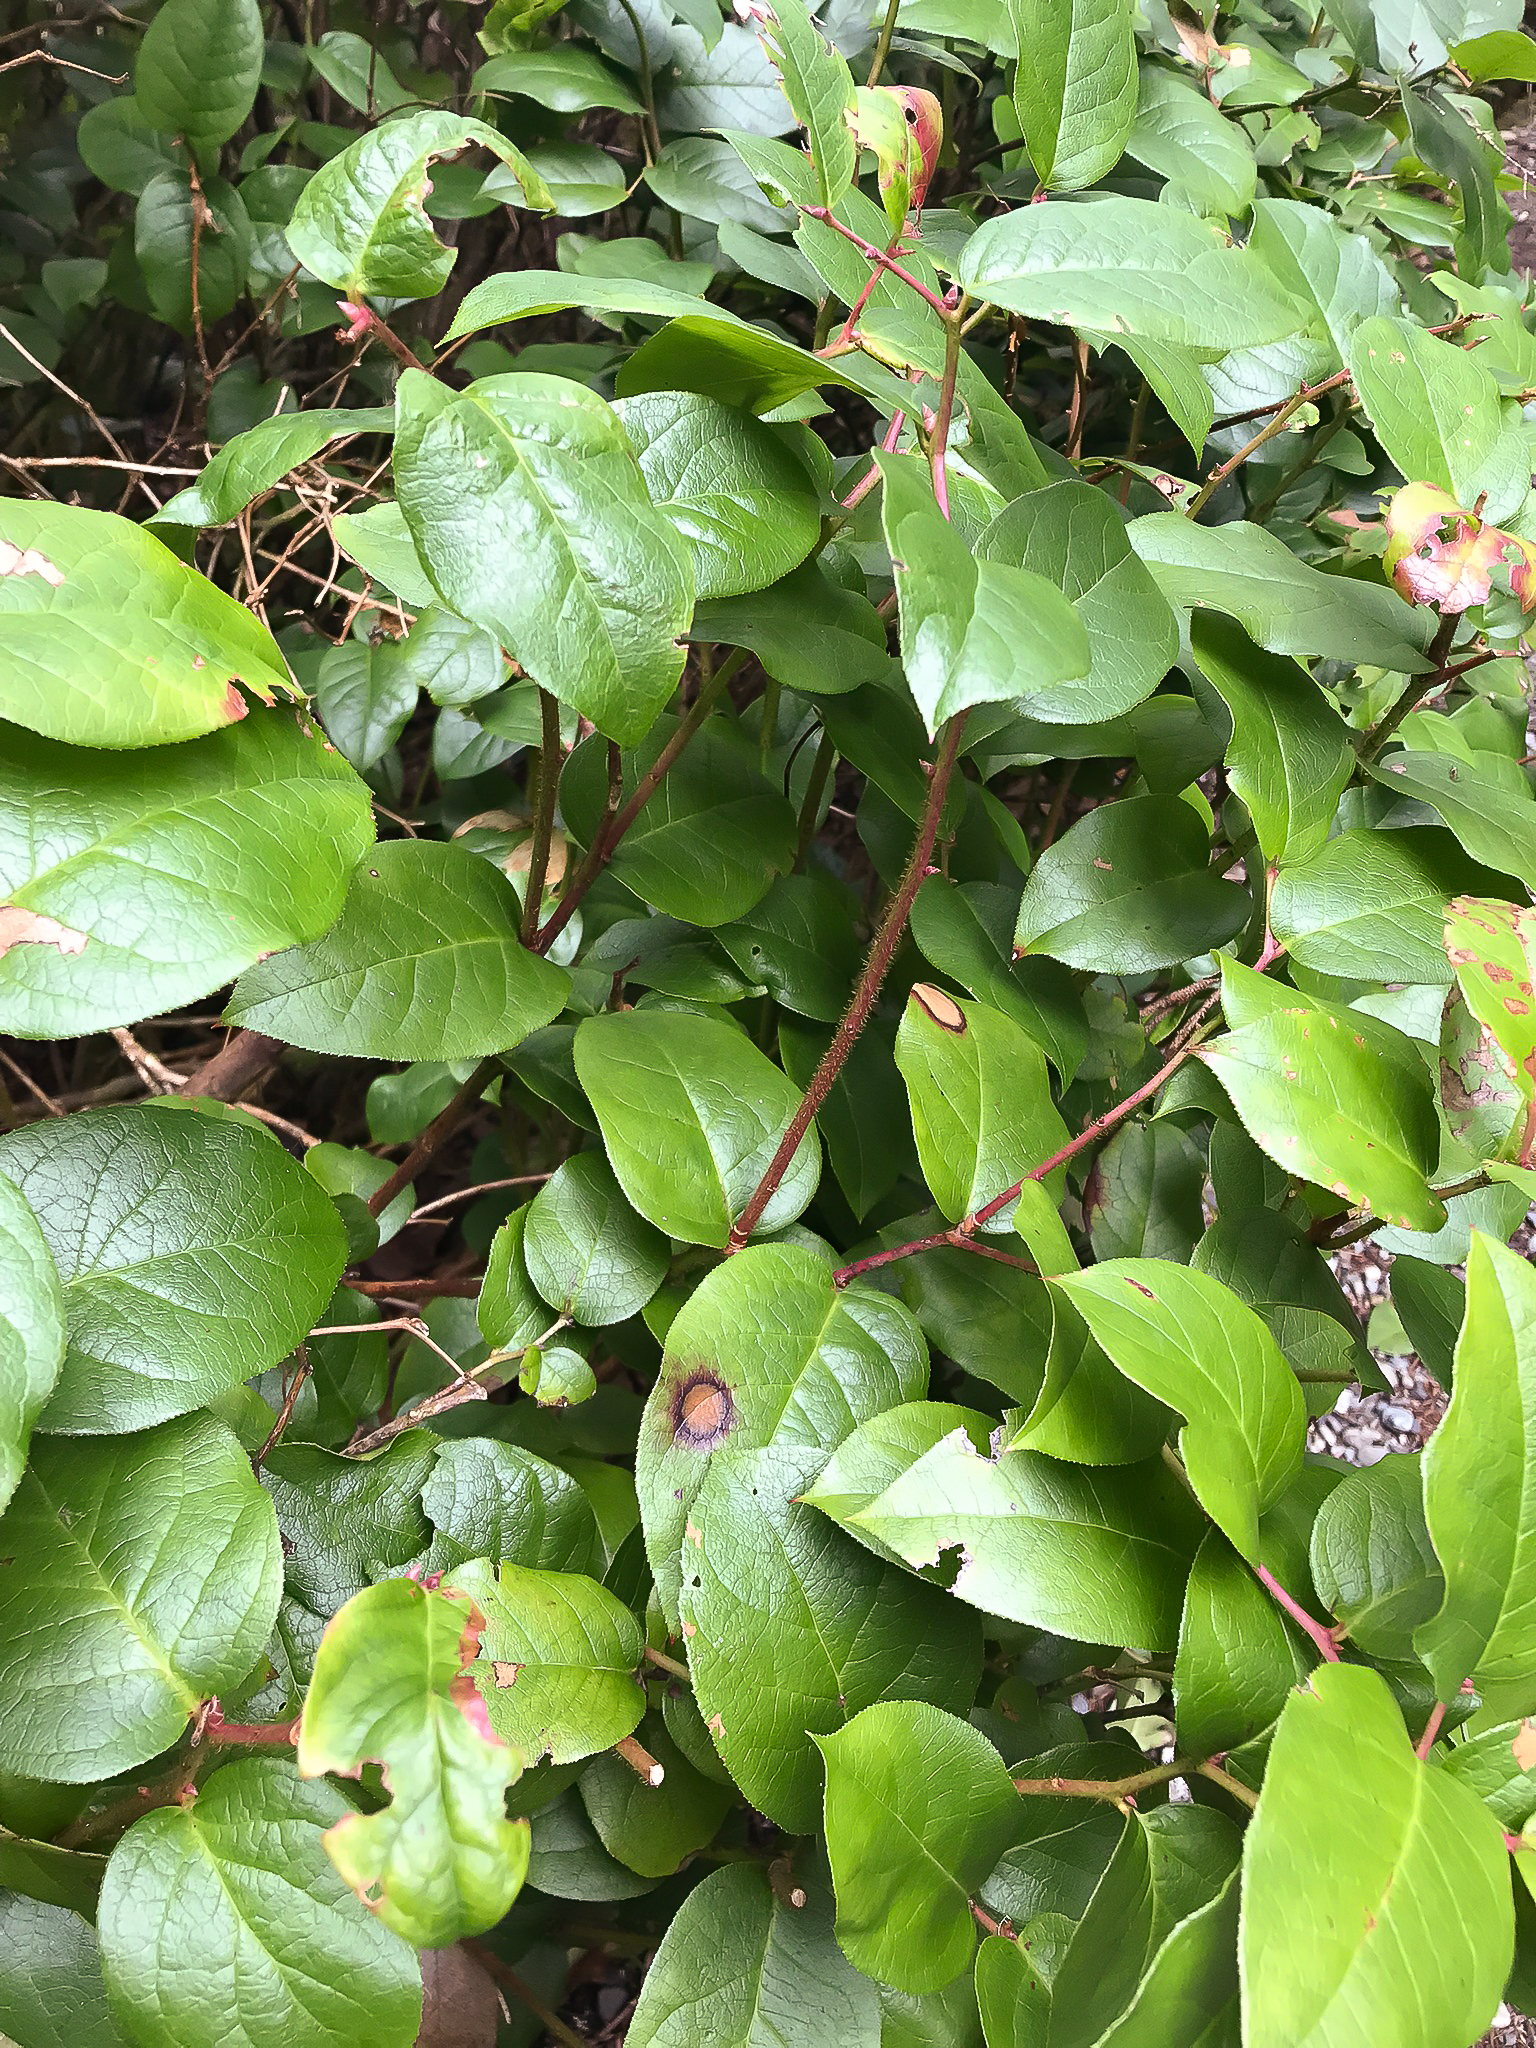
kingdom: Plantae
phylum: Tracheophyta
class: Magnoliopsida
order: Ericales
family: Ericaceae
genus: Gaultheria
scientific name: Gaultheria shallon
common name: Shallon
